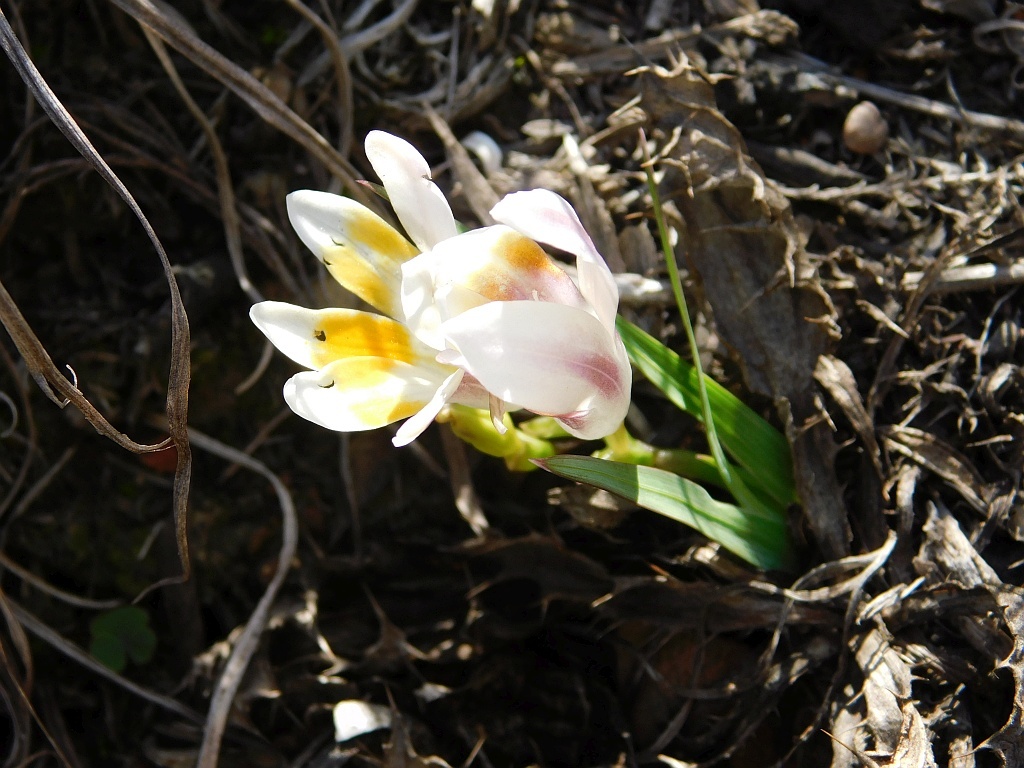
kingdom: Plantae
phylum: Tracheophyta
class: Liliopsida
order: Asparagales
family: Iridaceae
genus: Freesia
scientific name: Freesia caryophyllacea
